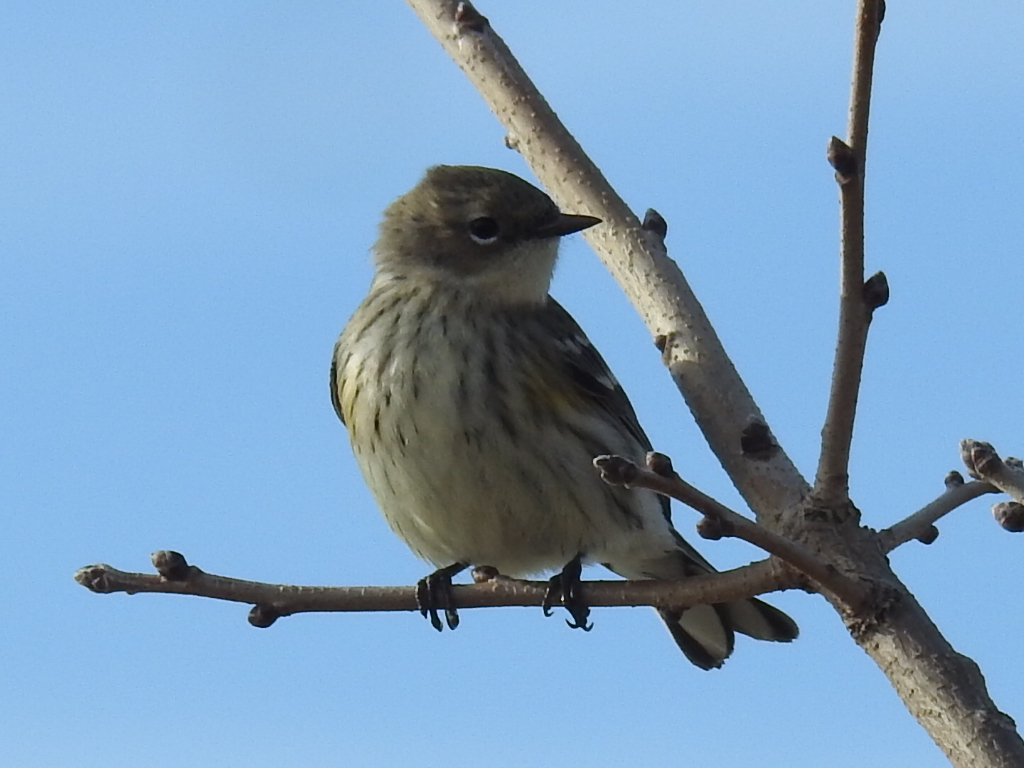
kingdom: Animalia
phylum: Chordata
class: Aves
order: Passeriformes
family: Parulidae
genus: Setophaga
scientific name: Setophaga coronata
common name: Myrtle warbler
